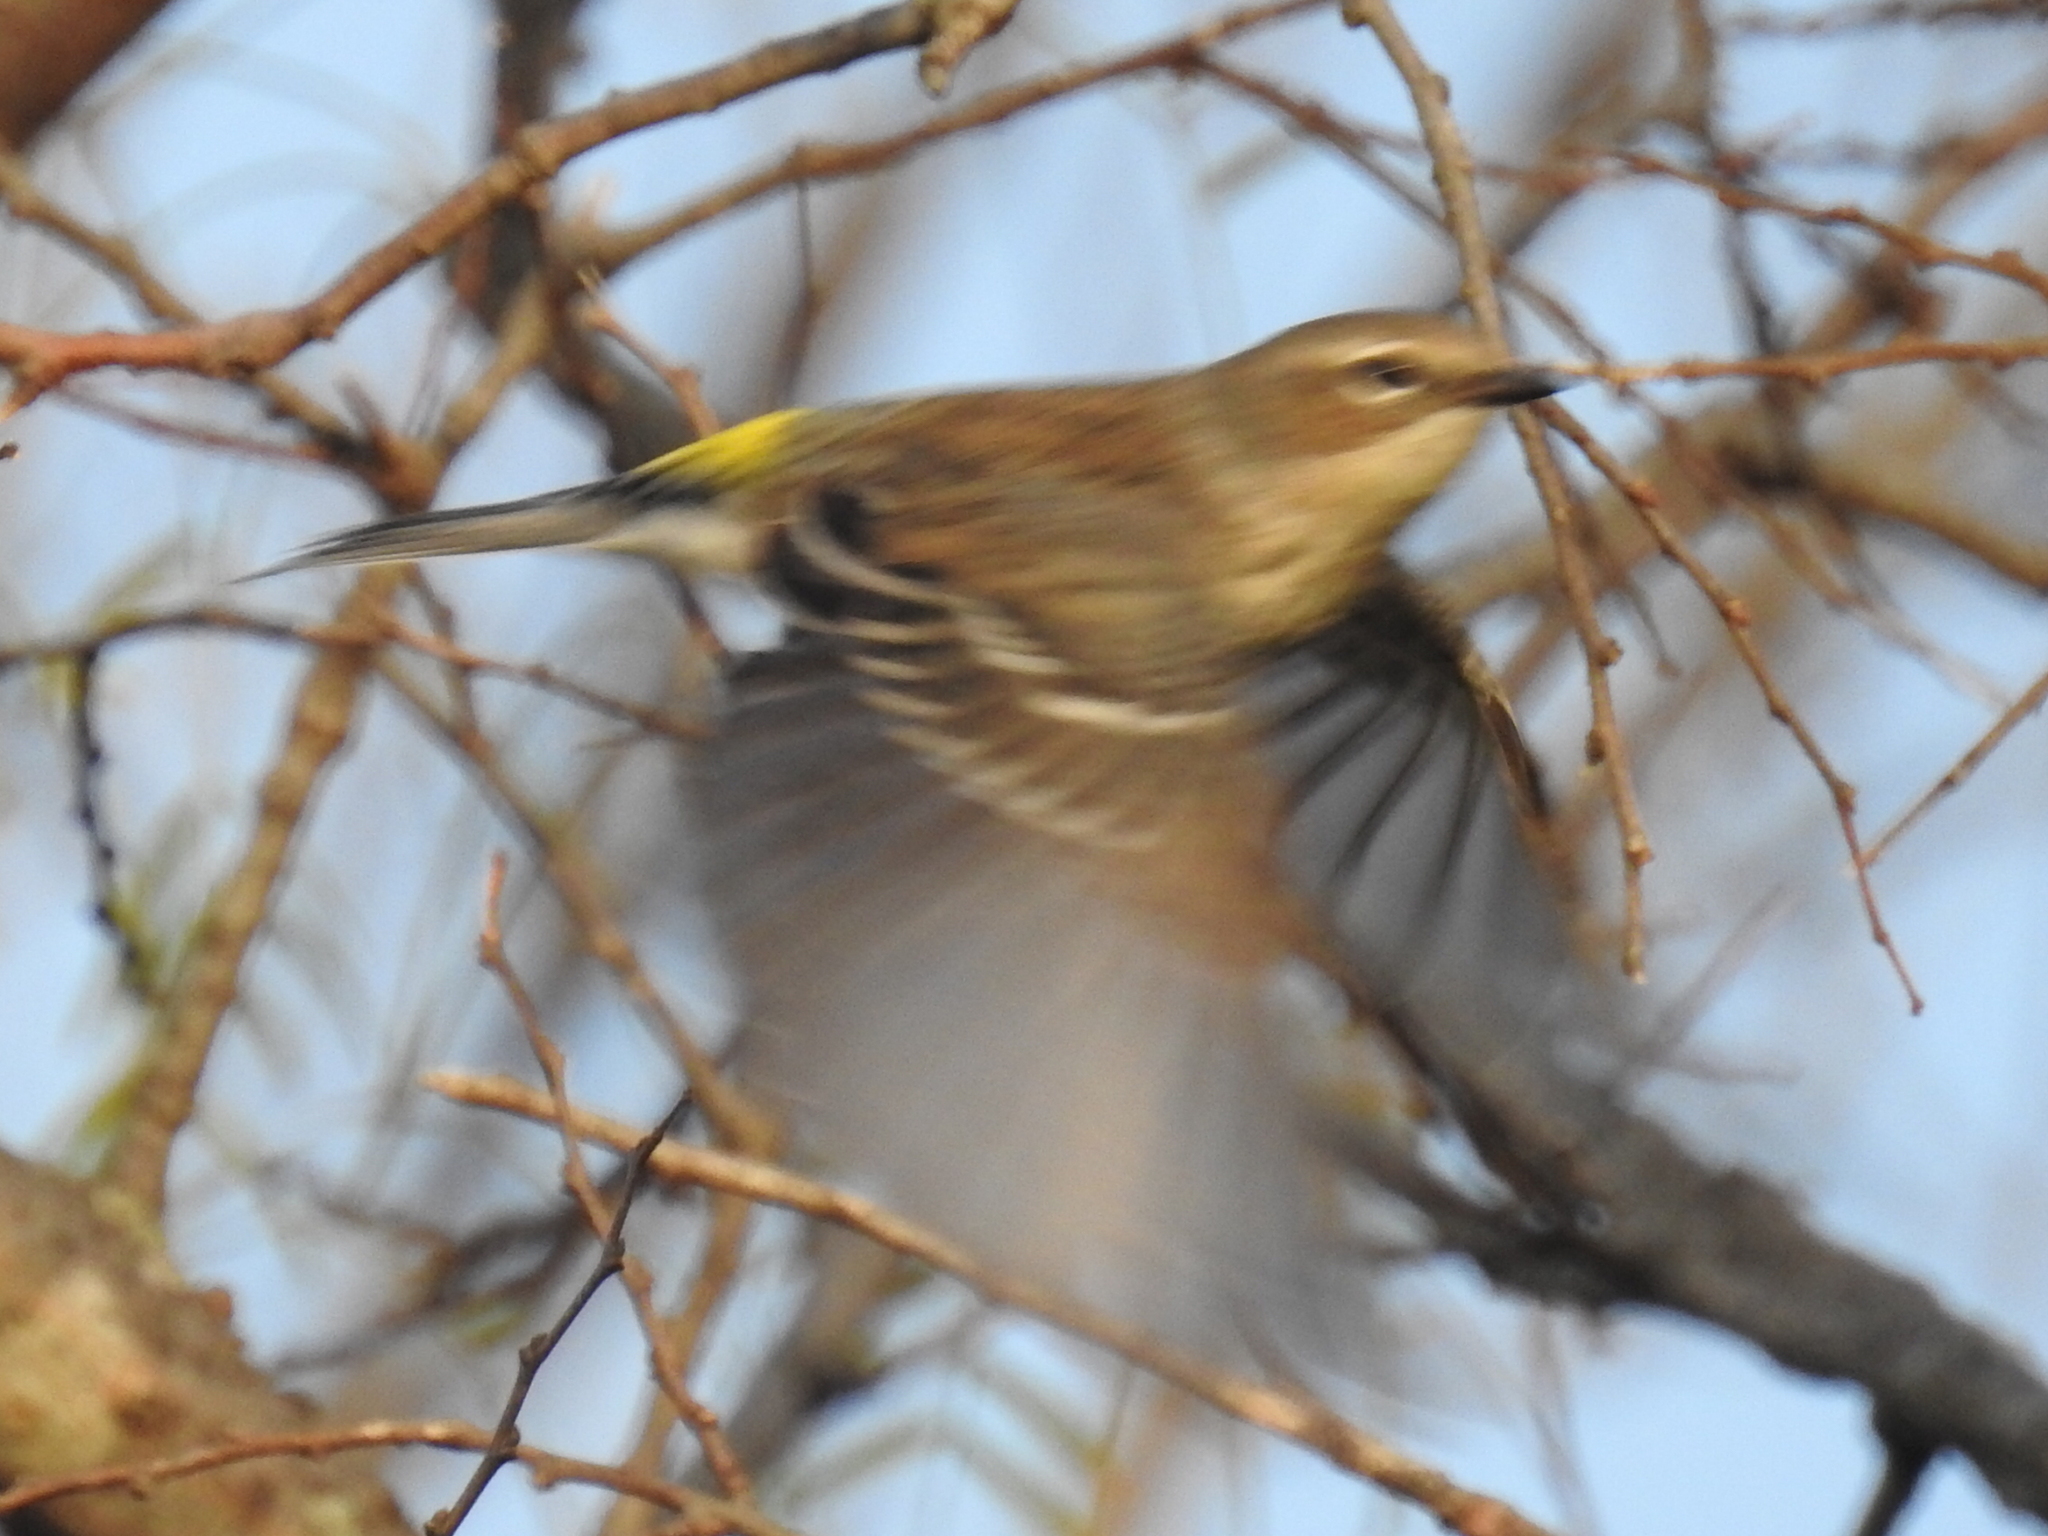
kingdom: Animalia
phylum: Chordata
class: Aves
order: Passeriformes
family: Parulidae
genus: Setophaga
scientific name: Setophaga coronata
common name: Myrtle warbler
